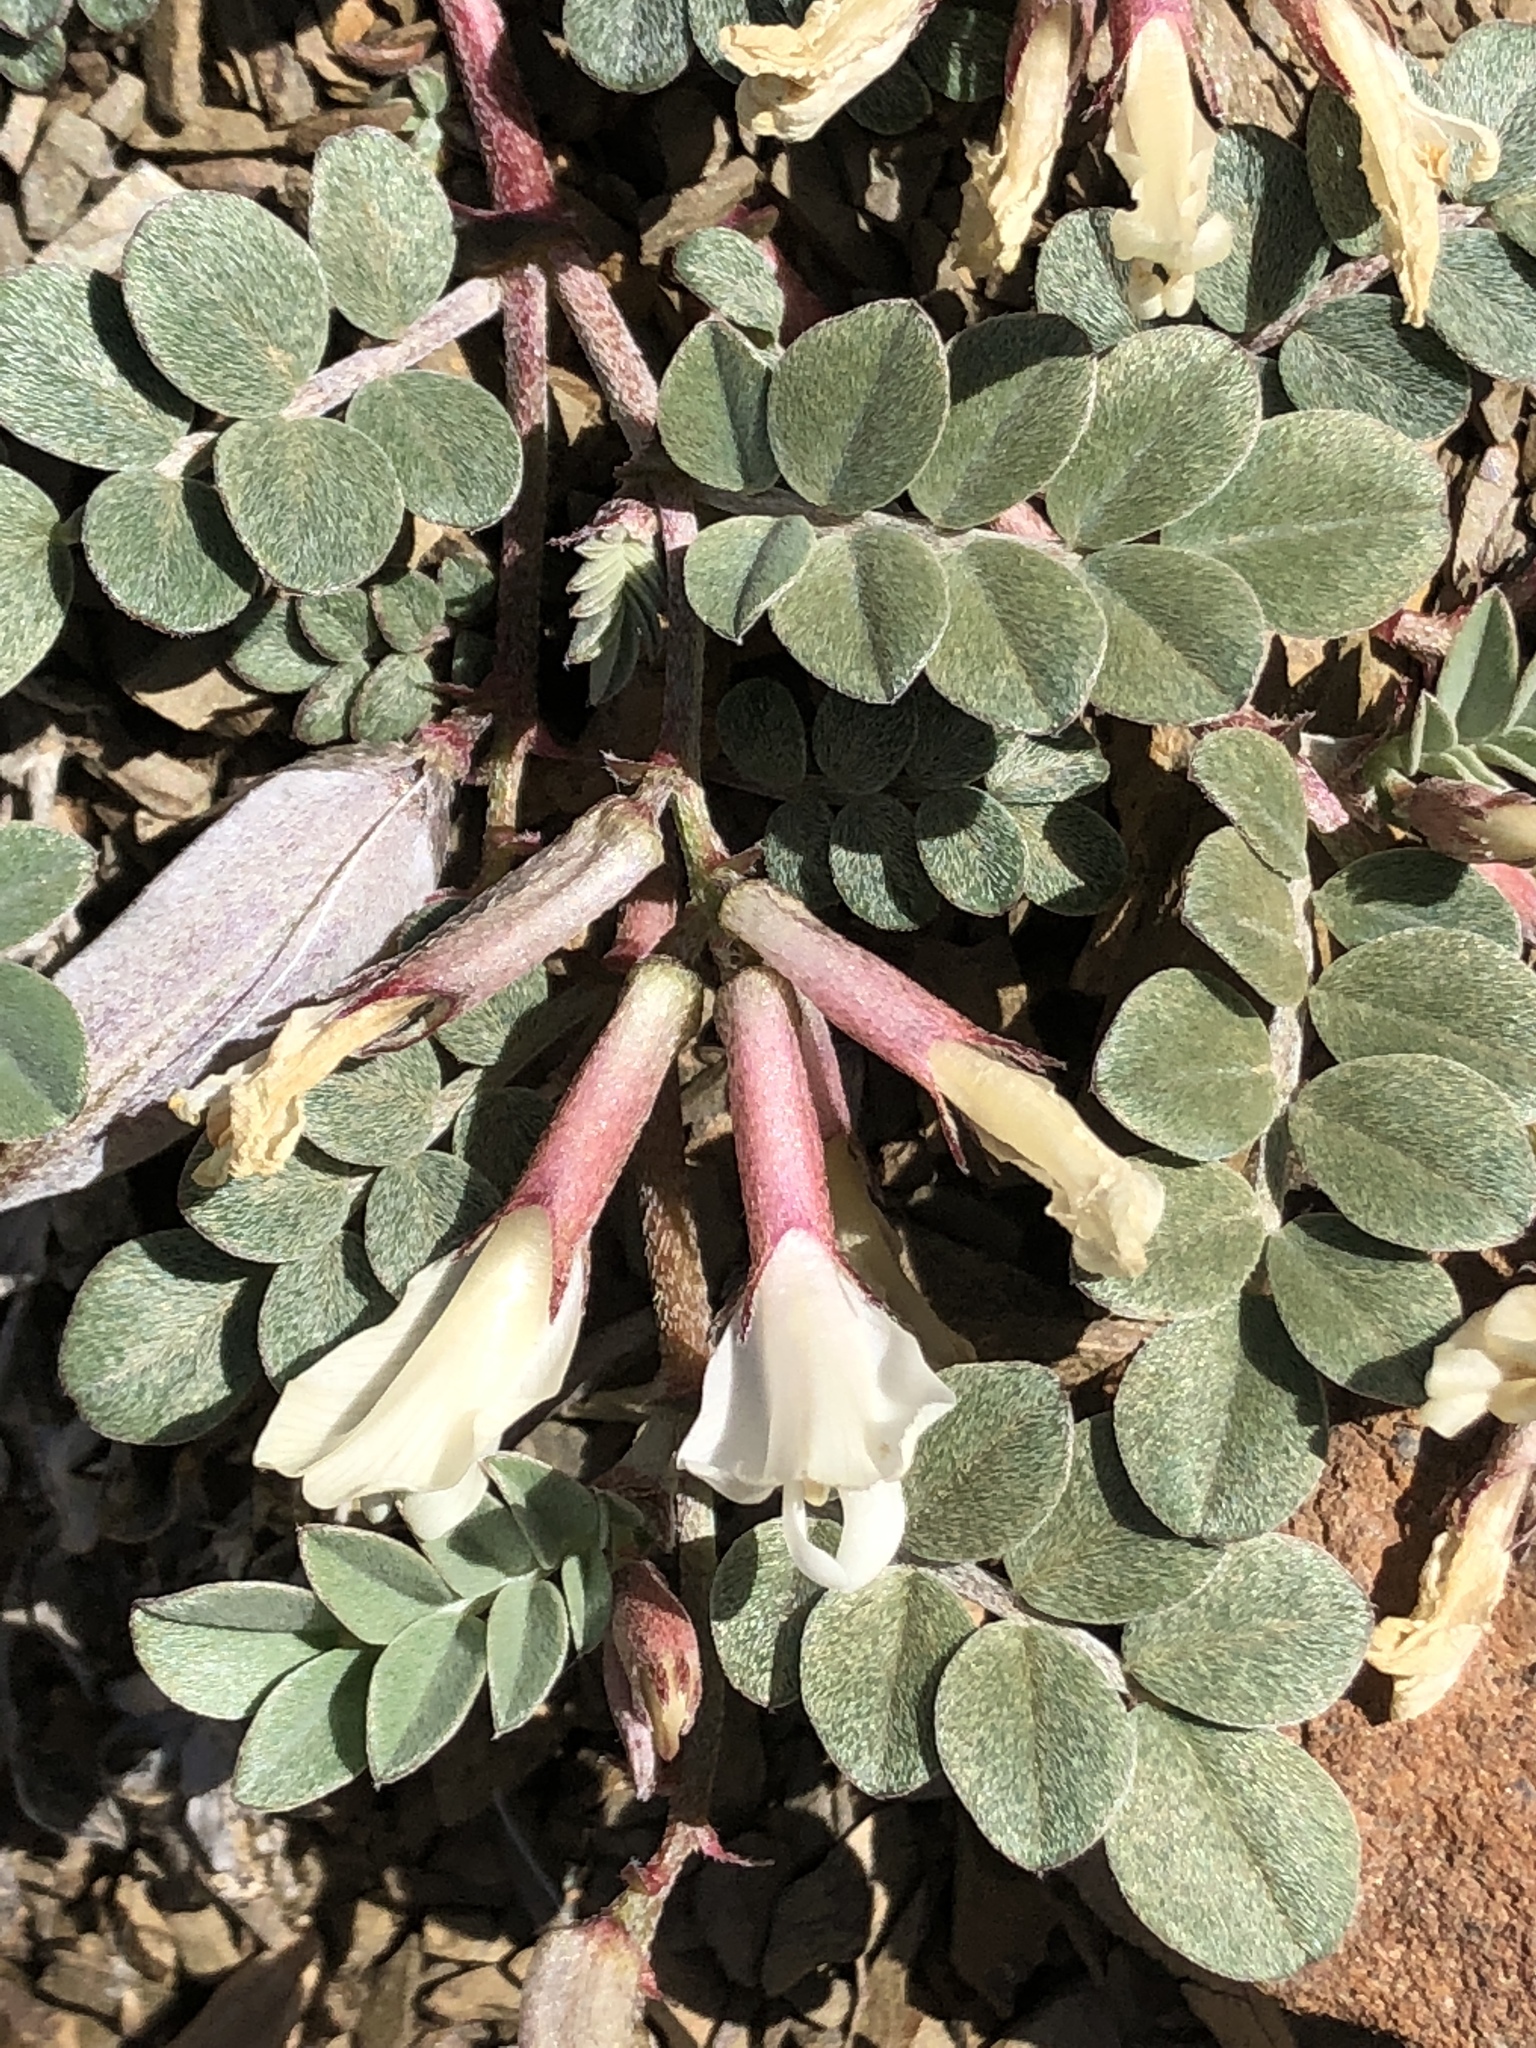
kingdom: Plantae
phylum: Tracheophyta
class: Magnoliopsida
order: Fabales
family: Fabaceae
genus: Astragalus
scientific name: Astragalus kelseyae
